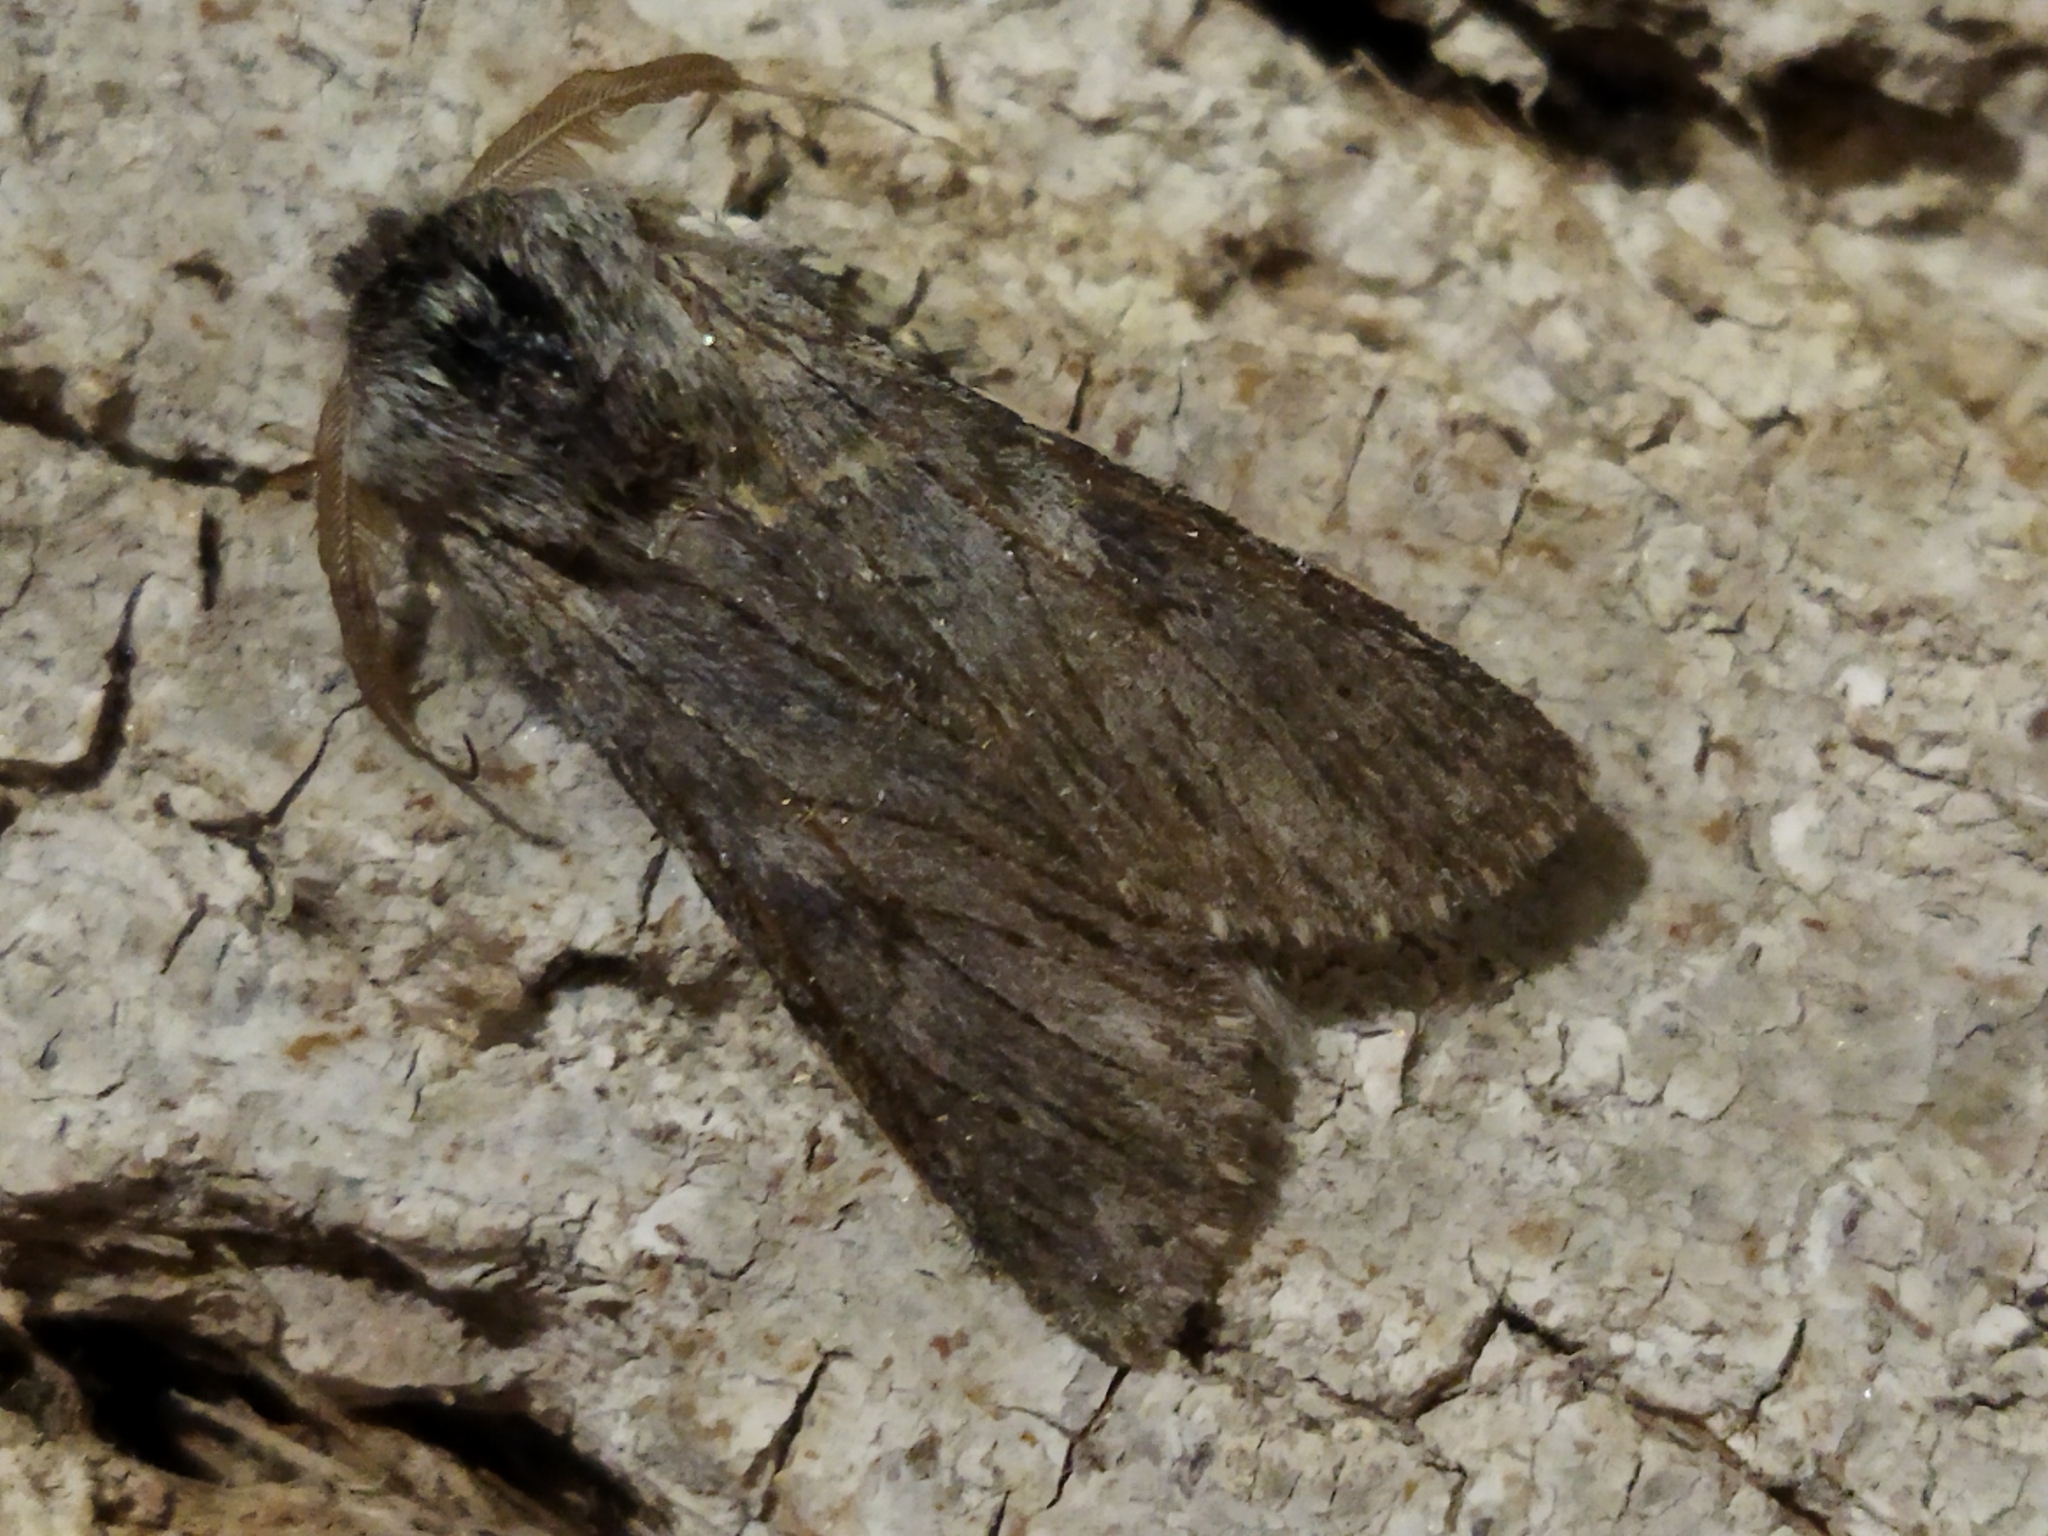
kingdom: Animalia
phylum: Arthropoda
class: Insecta
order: Lepidoptera
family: Notodontidae
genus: Dicranura
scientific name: Dicranura ulmi
